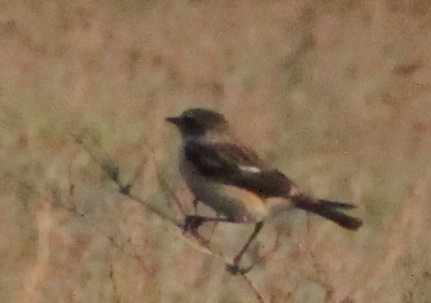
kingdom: Animalia
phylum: Chordata
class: Aves
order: Passeriformes
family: Muscicapidae
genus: Saxicola
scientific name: Saxicola maurus
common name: Siberian stonechat
